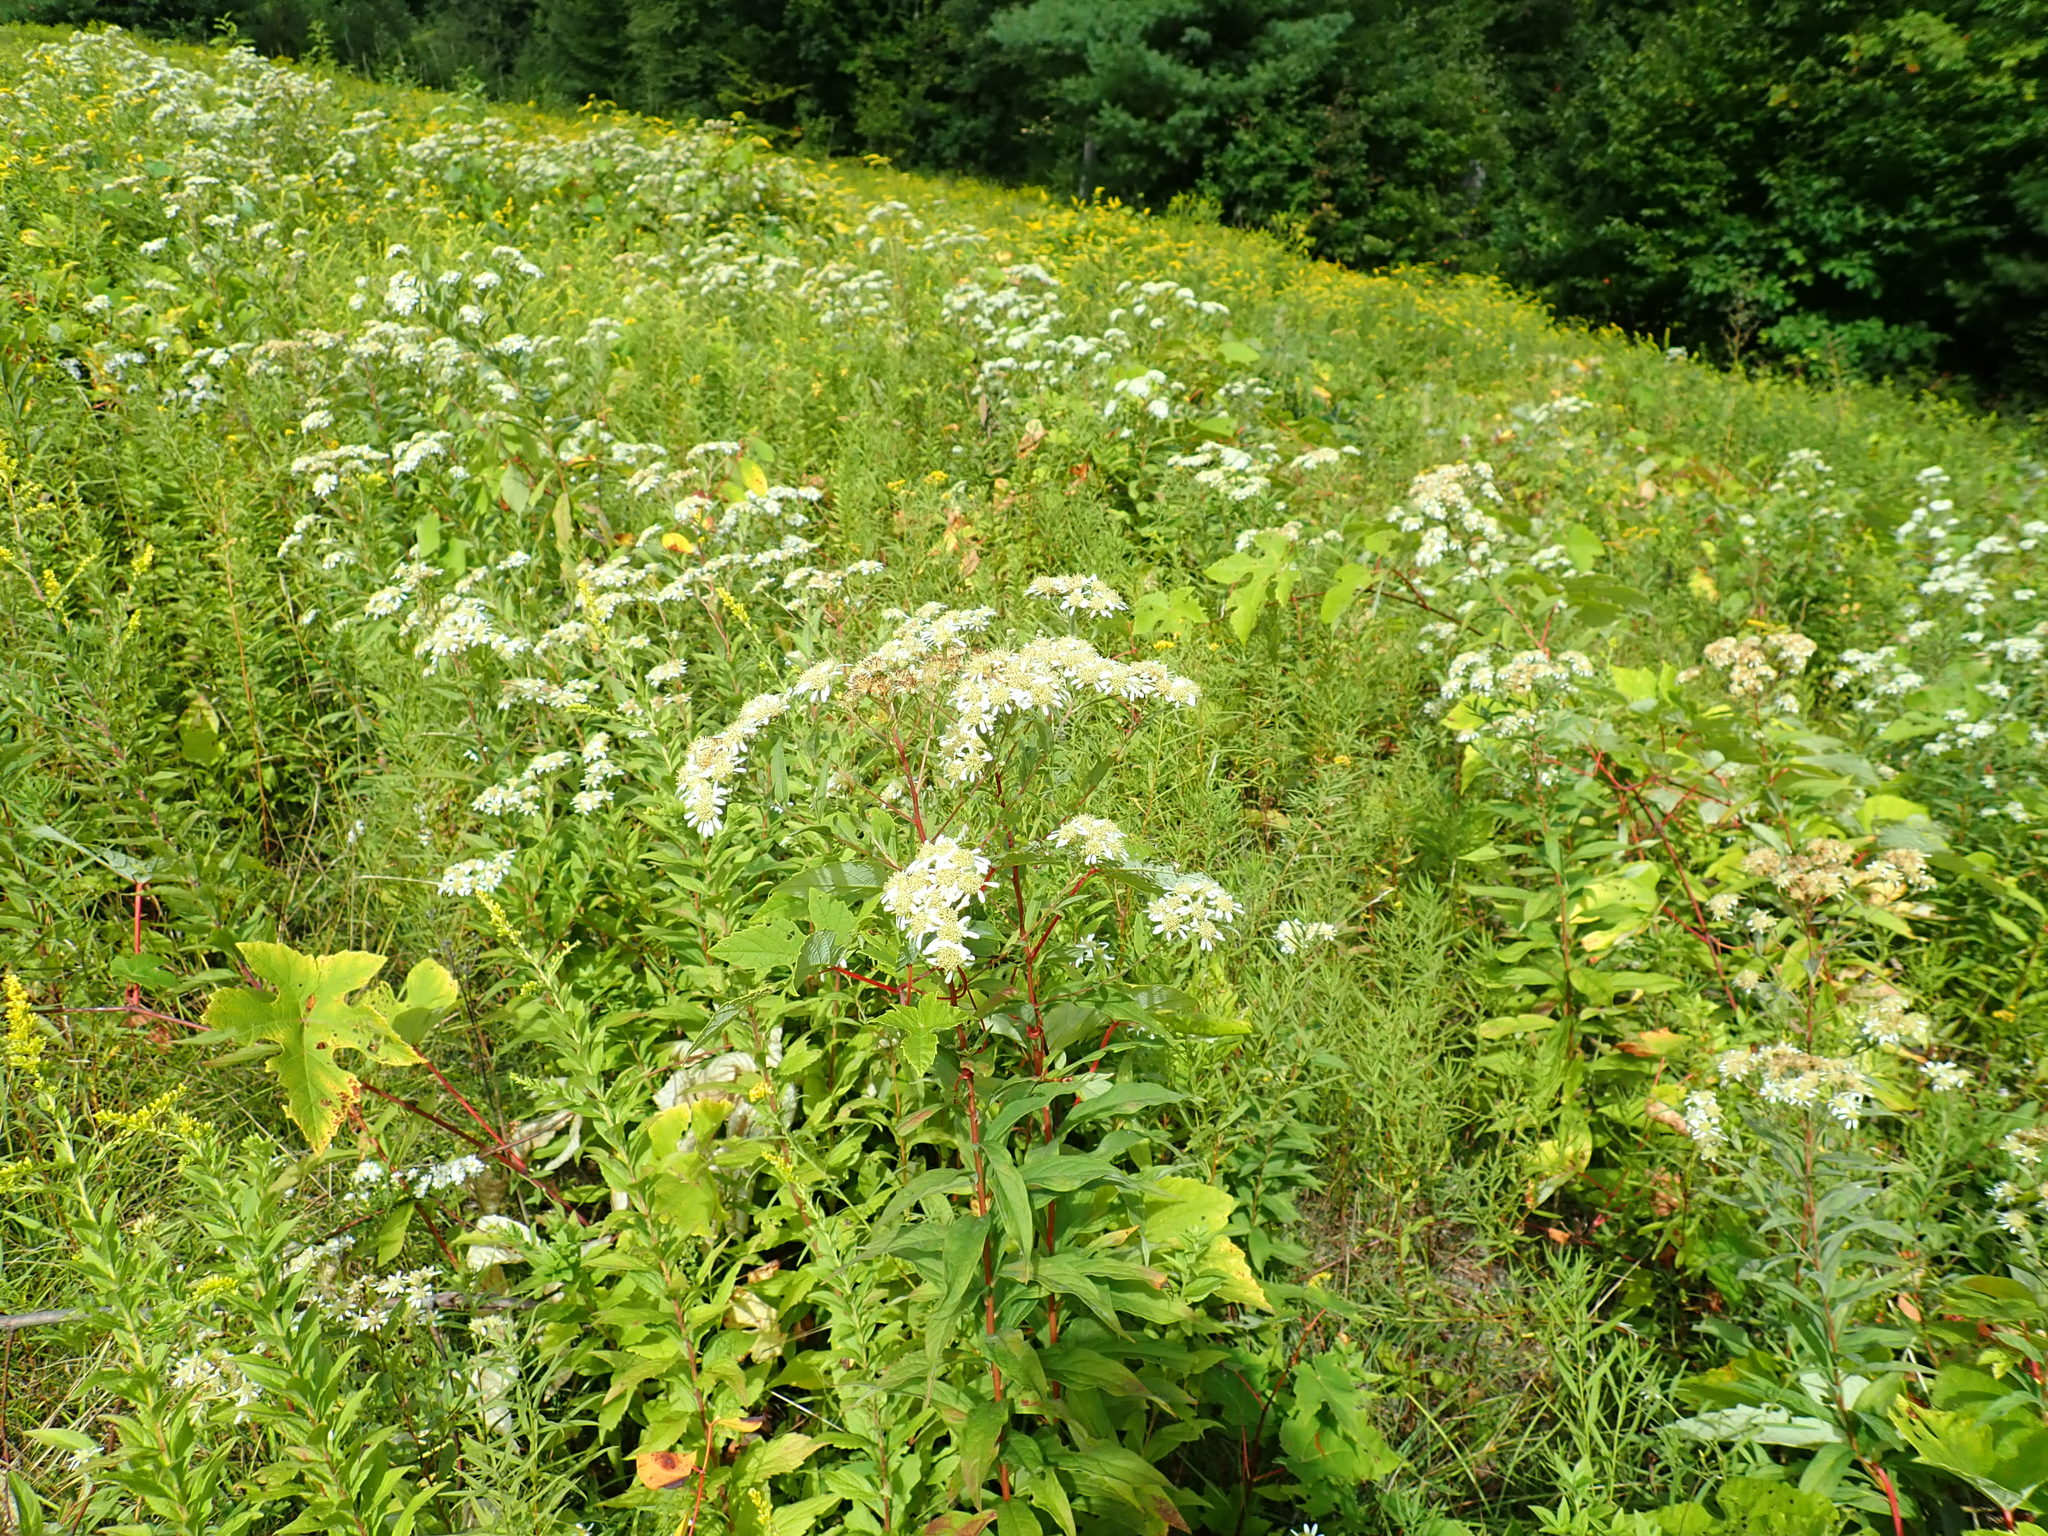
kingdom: Plantae
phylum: Tracheophyta
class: Magnoliopsida
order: Asterales
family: Asteraceae
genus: Doellingeria
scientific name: Doellingeria umbellata
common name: Flat-top white aster
